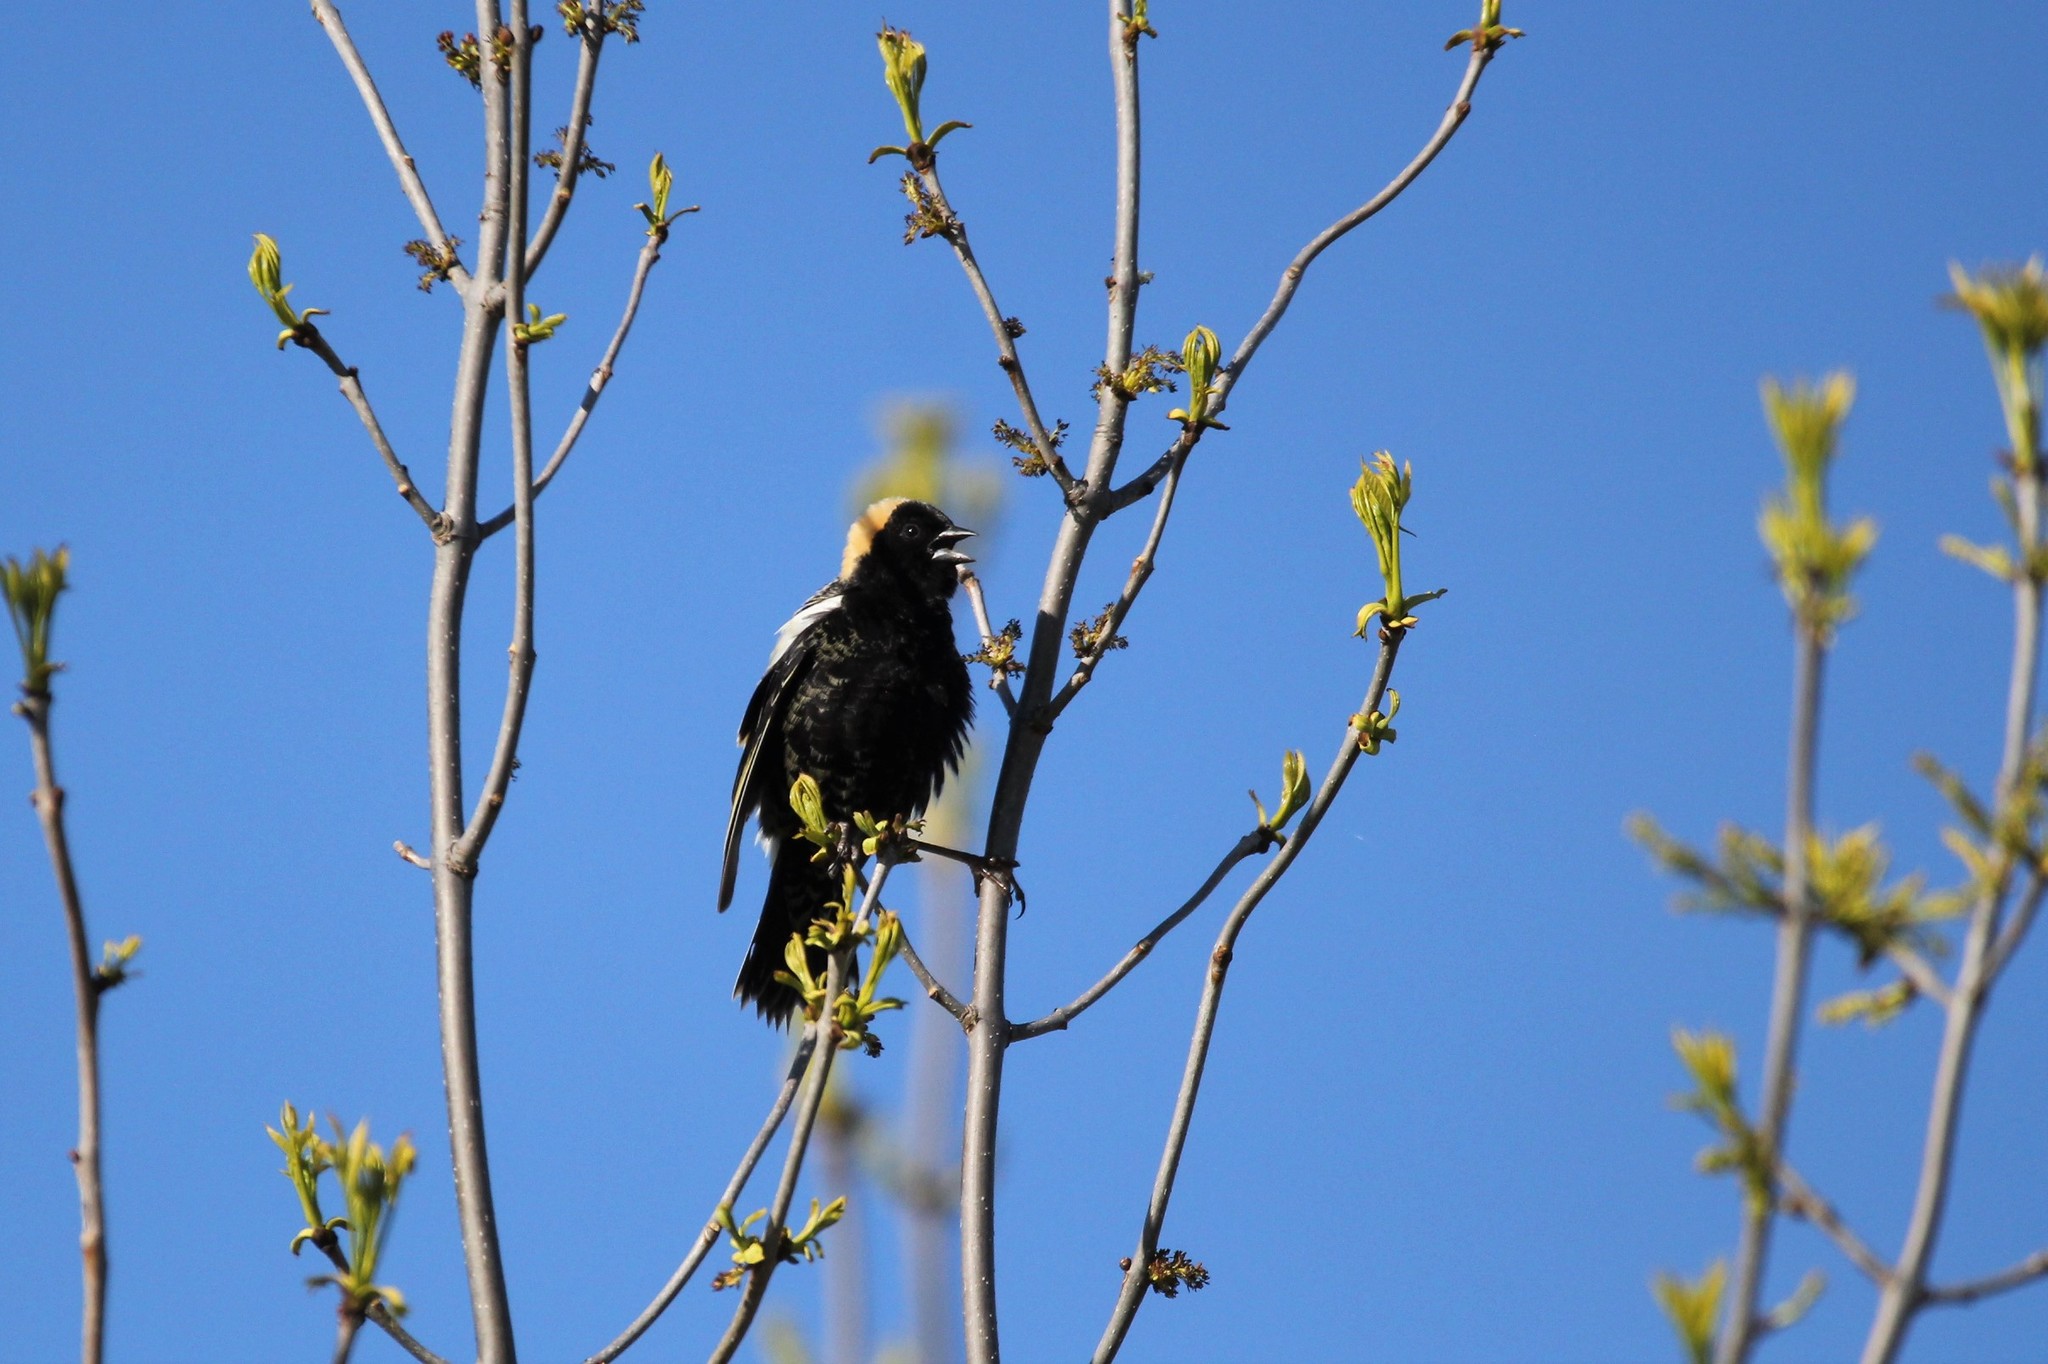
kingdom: Animalia
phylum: Chordata
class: Aves
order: Passeriformes
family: Icteridae
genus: Dolichonyx
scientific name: Dolichonyx oryzivorus
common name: Bobolink
